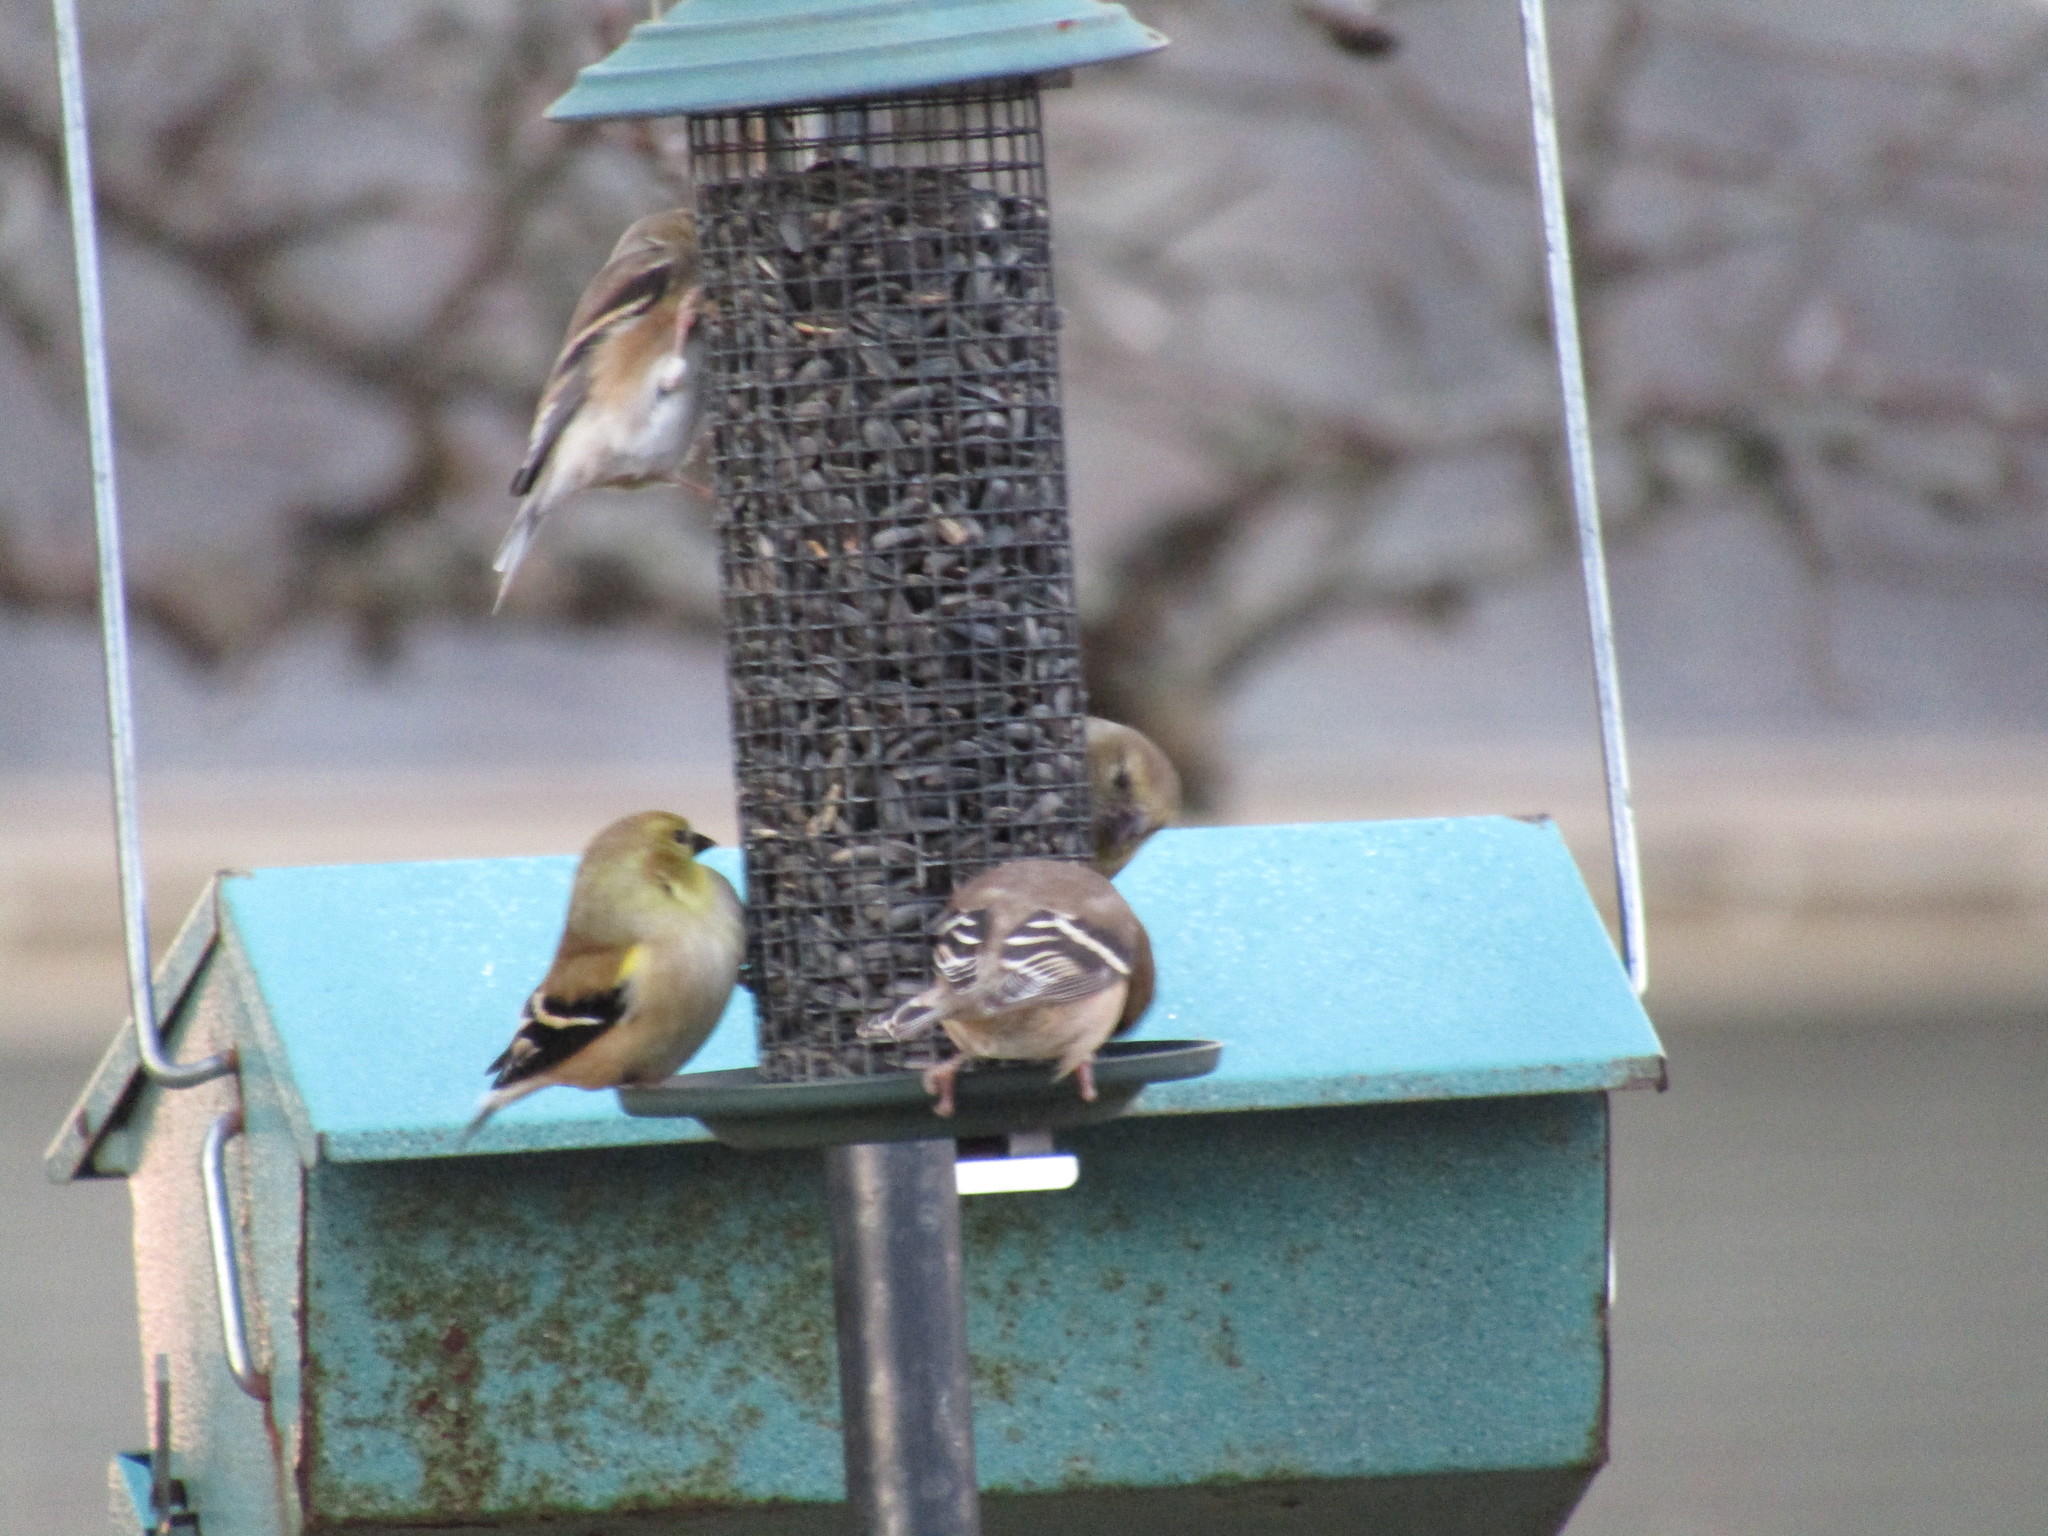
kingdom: Animalia
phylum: Chordata
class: Aves
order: Passeriformes
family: Fringillidae
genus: Spinus
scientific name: Spinus tristis
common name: American goldfinch
